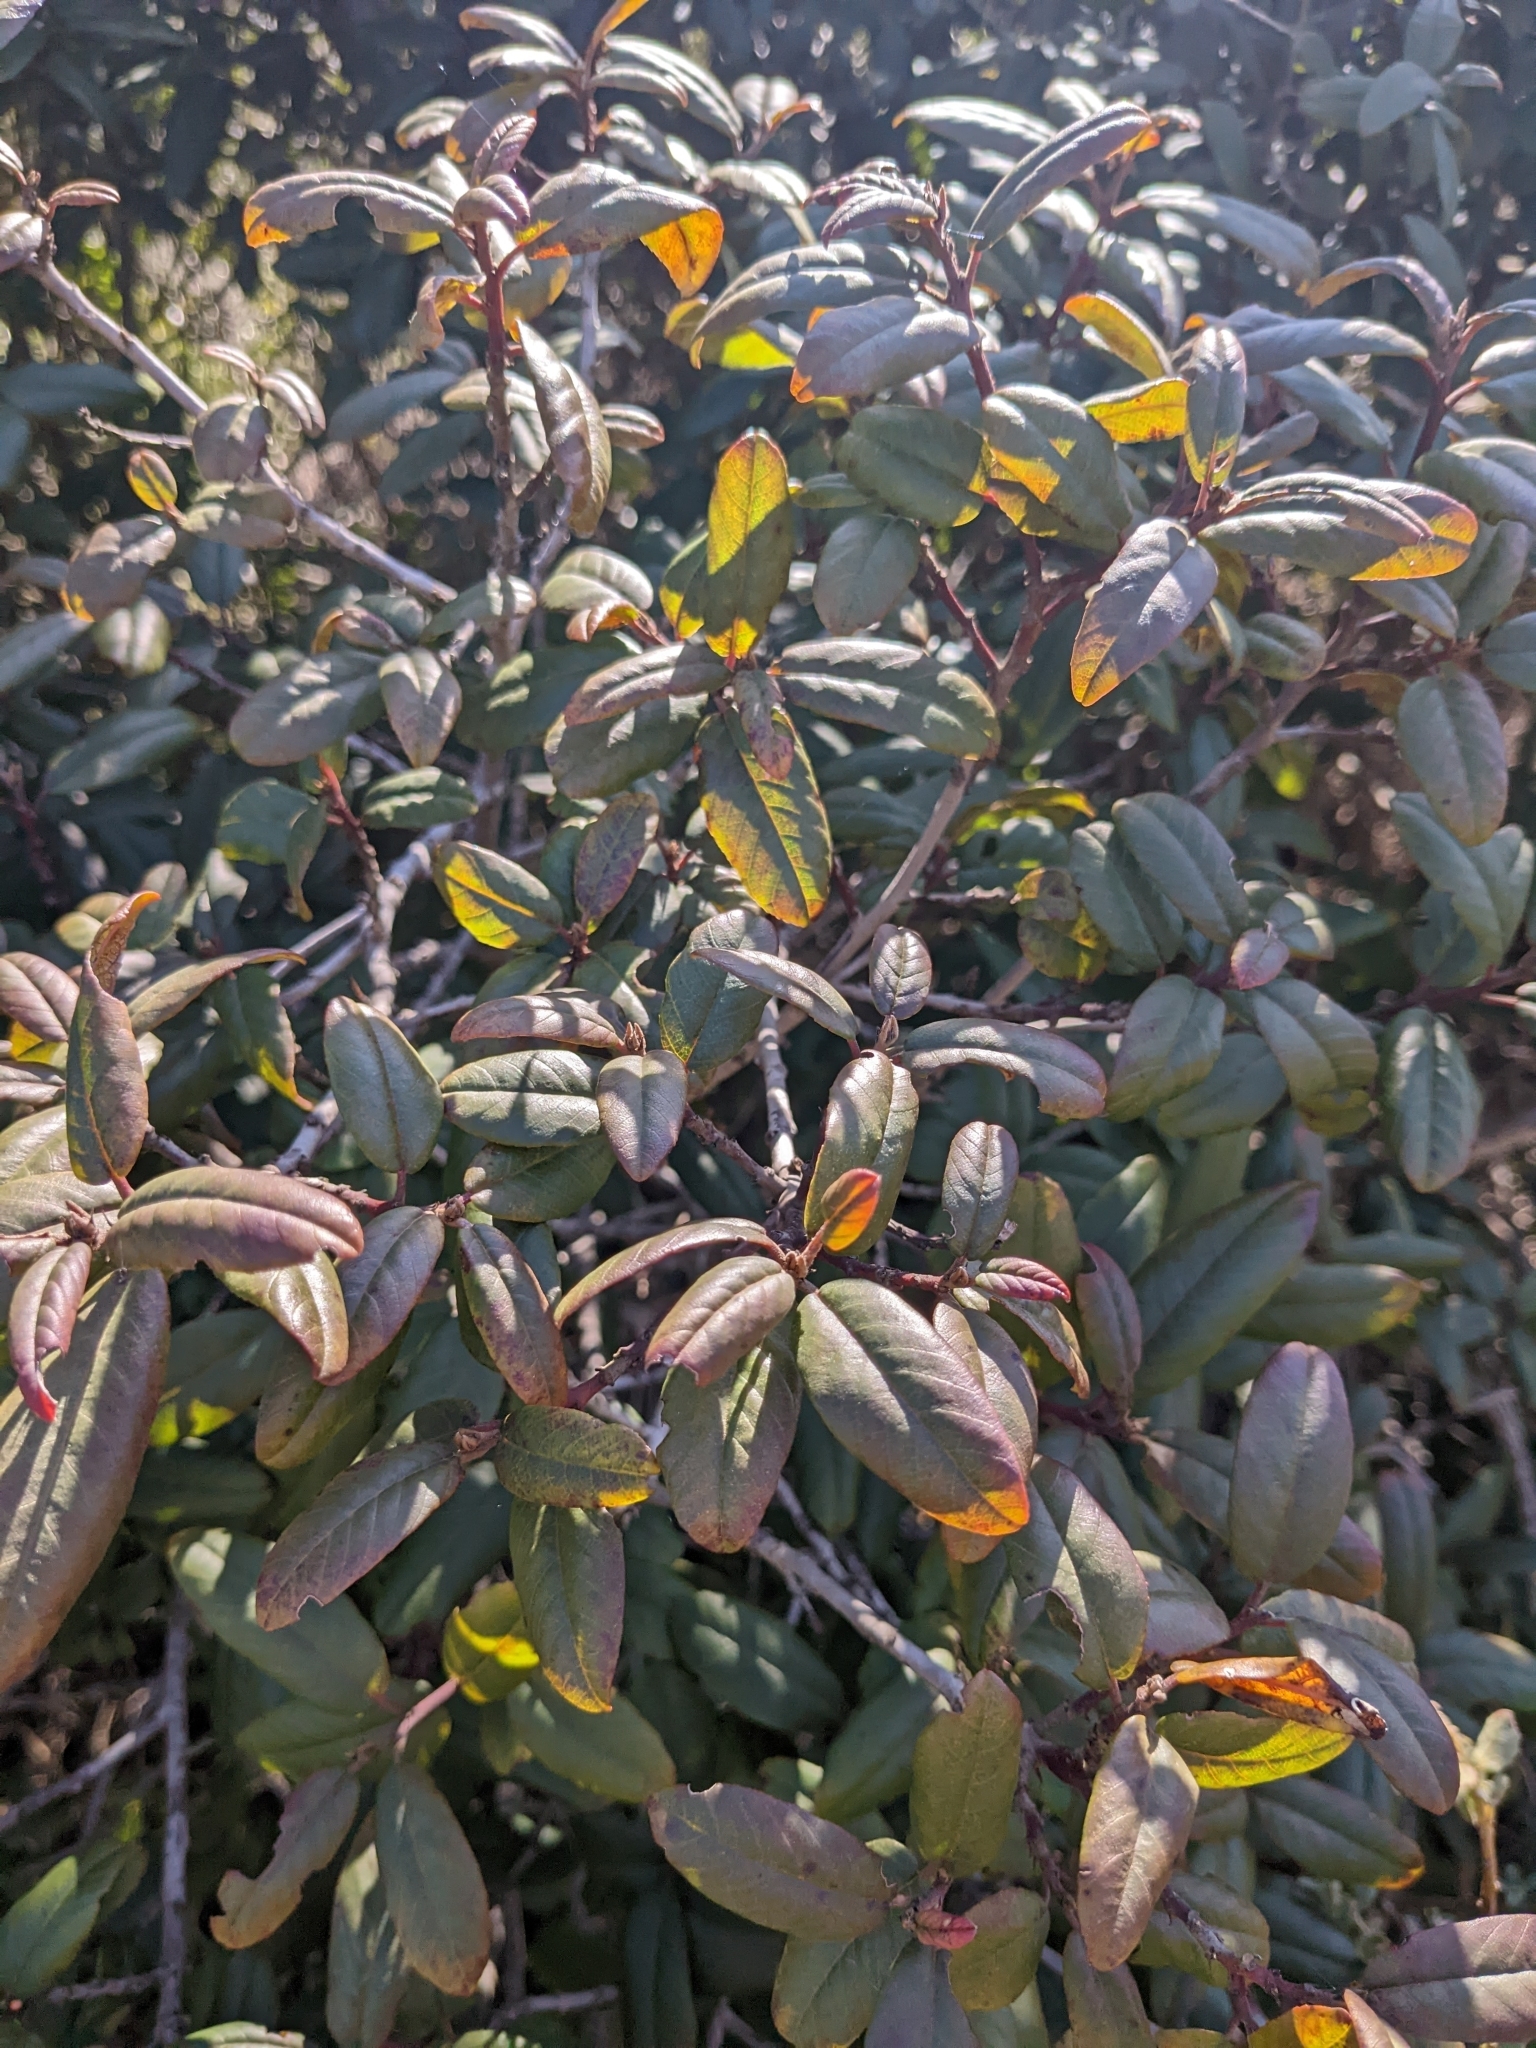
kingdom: Plantae
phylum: Tracheophyta
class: Magnoliopsida
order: Rosales
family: Rhamnaceae
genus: Frangula
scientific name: Frangula californica
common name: California buckthorn
